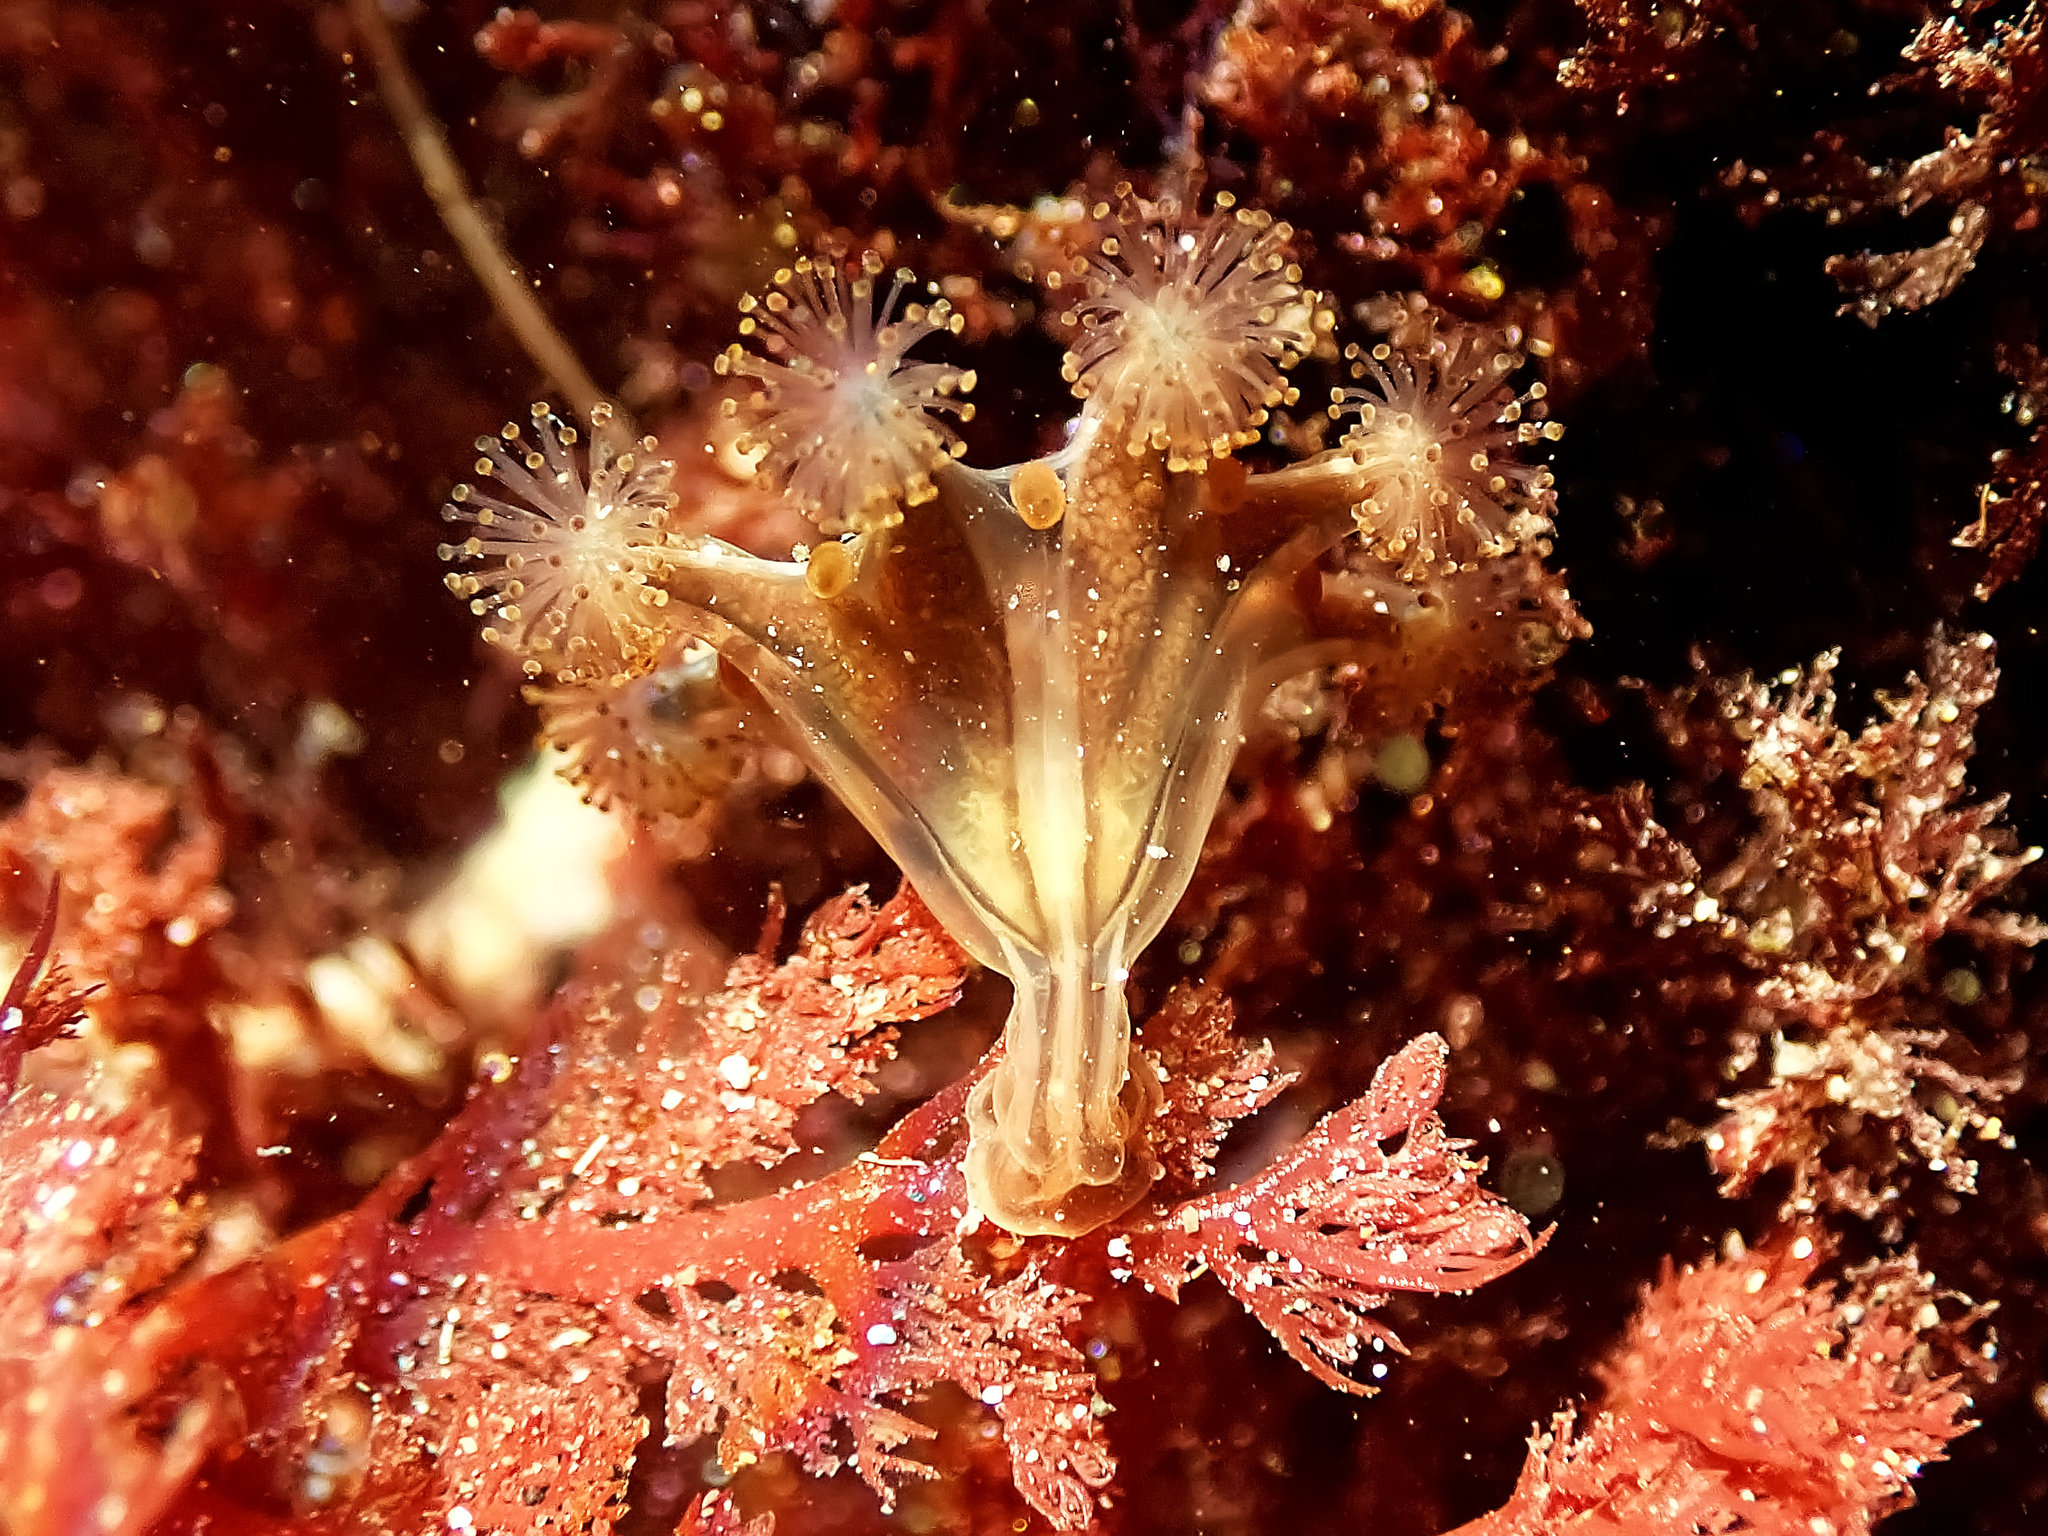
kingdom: Animalia
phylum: Cnidaria
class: Staurozoa
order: Stauromedusae
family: Haliclystidae
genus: Haliclystus
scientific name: Haliclystus sanjuanensis
